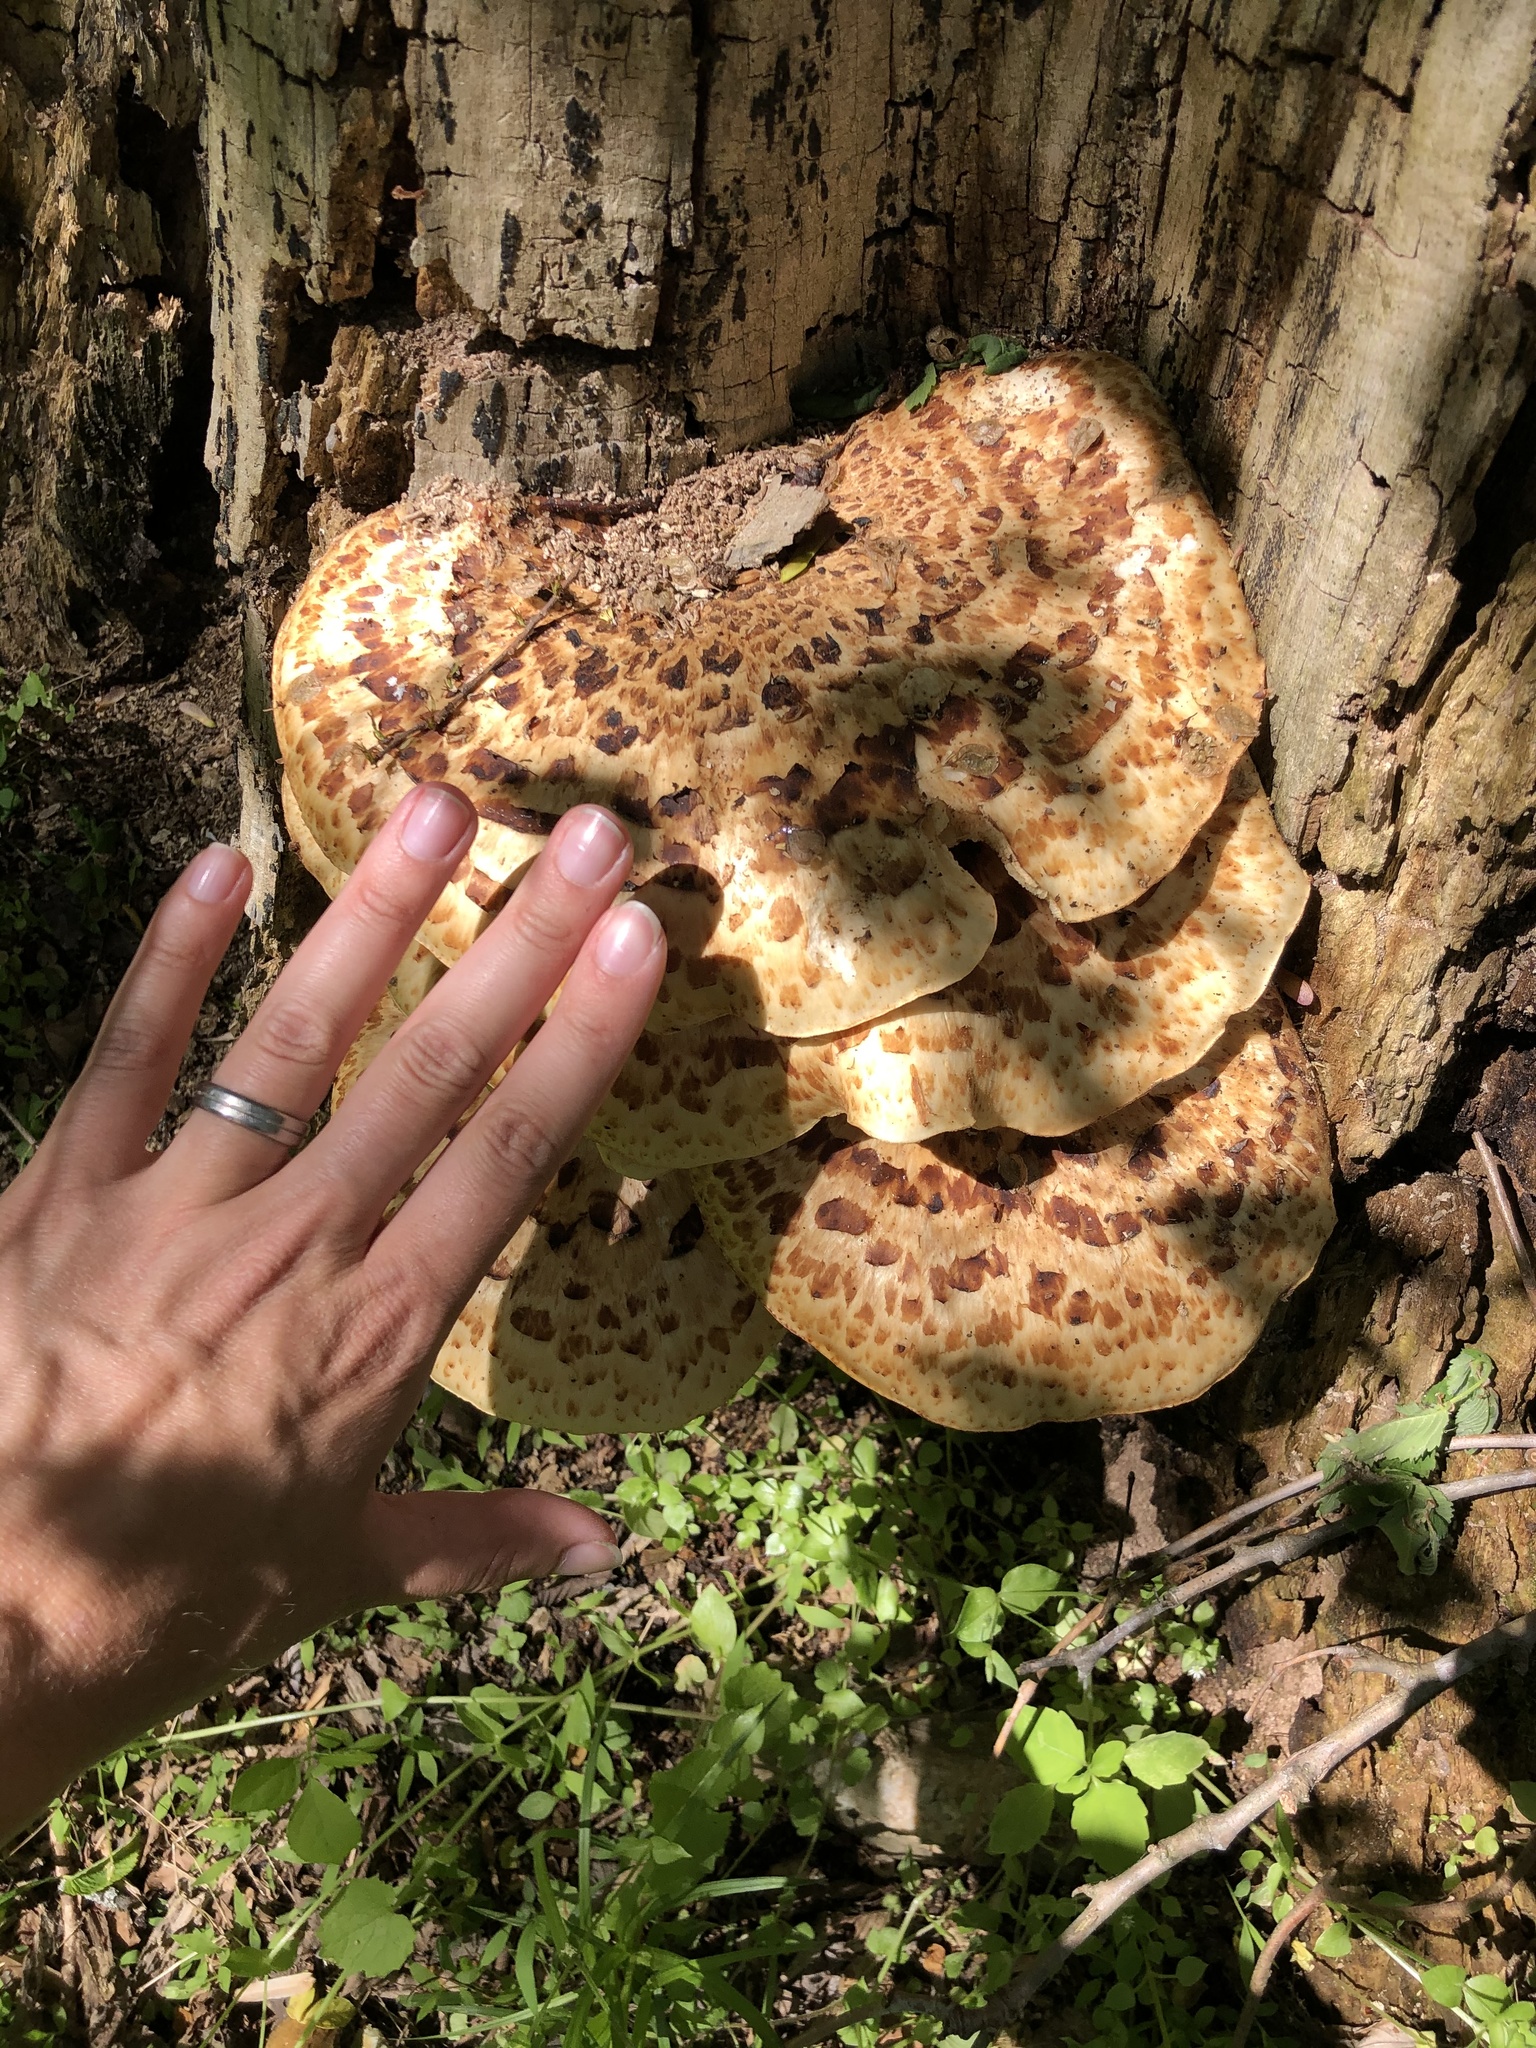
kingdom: Fungi
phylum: Basidiomycota
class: Agaricomycetes
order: Polyporales
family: Polyporaceae
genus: Cerioporus
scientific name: Cerioporus squamosus
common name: Dryad's saddle
